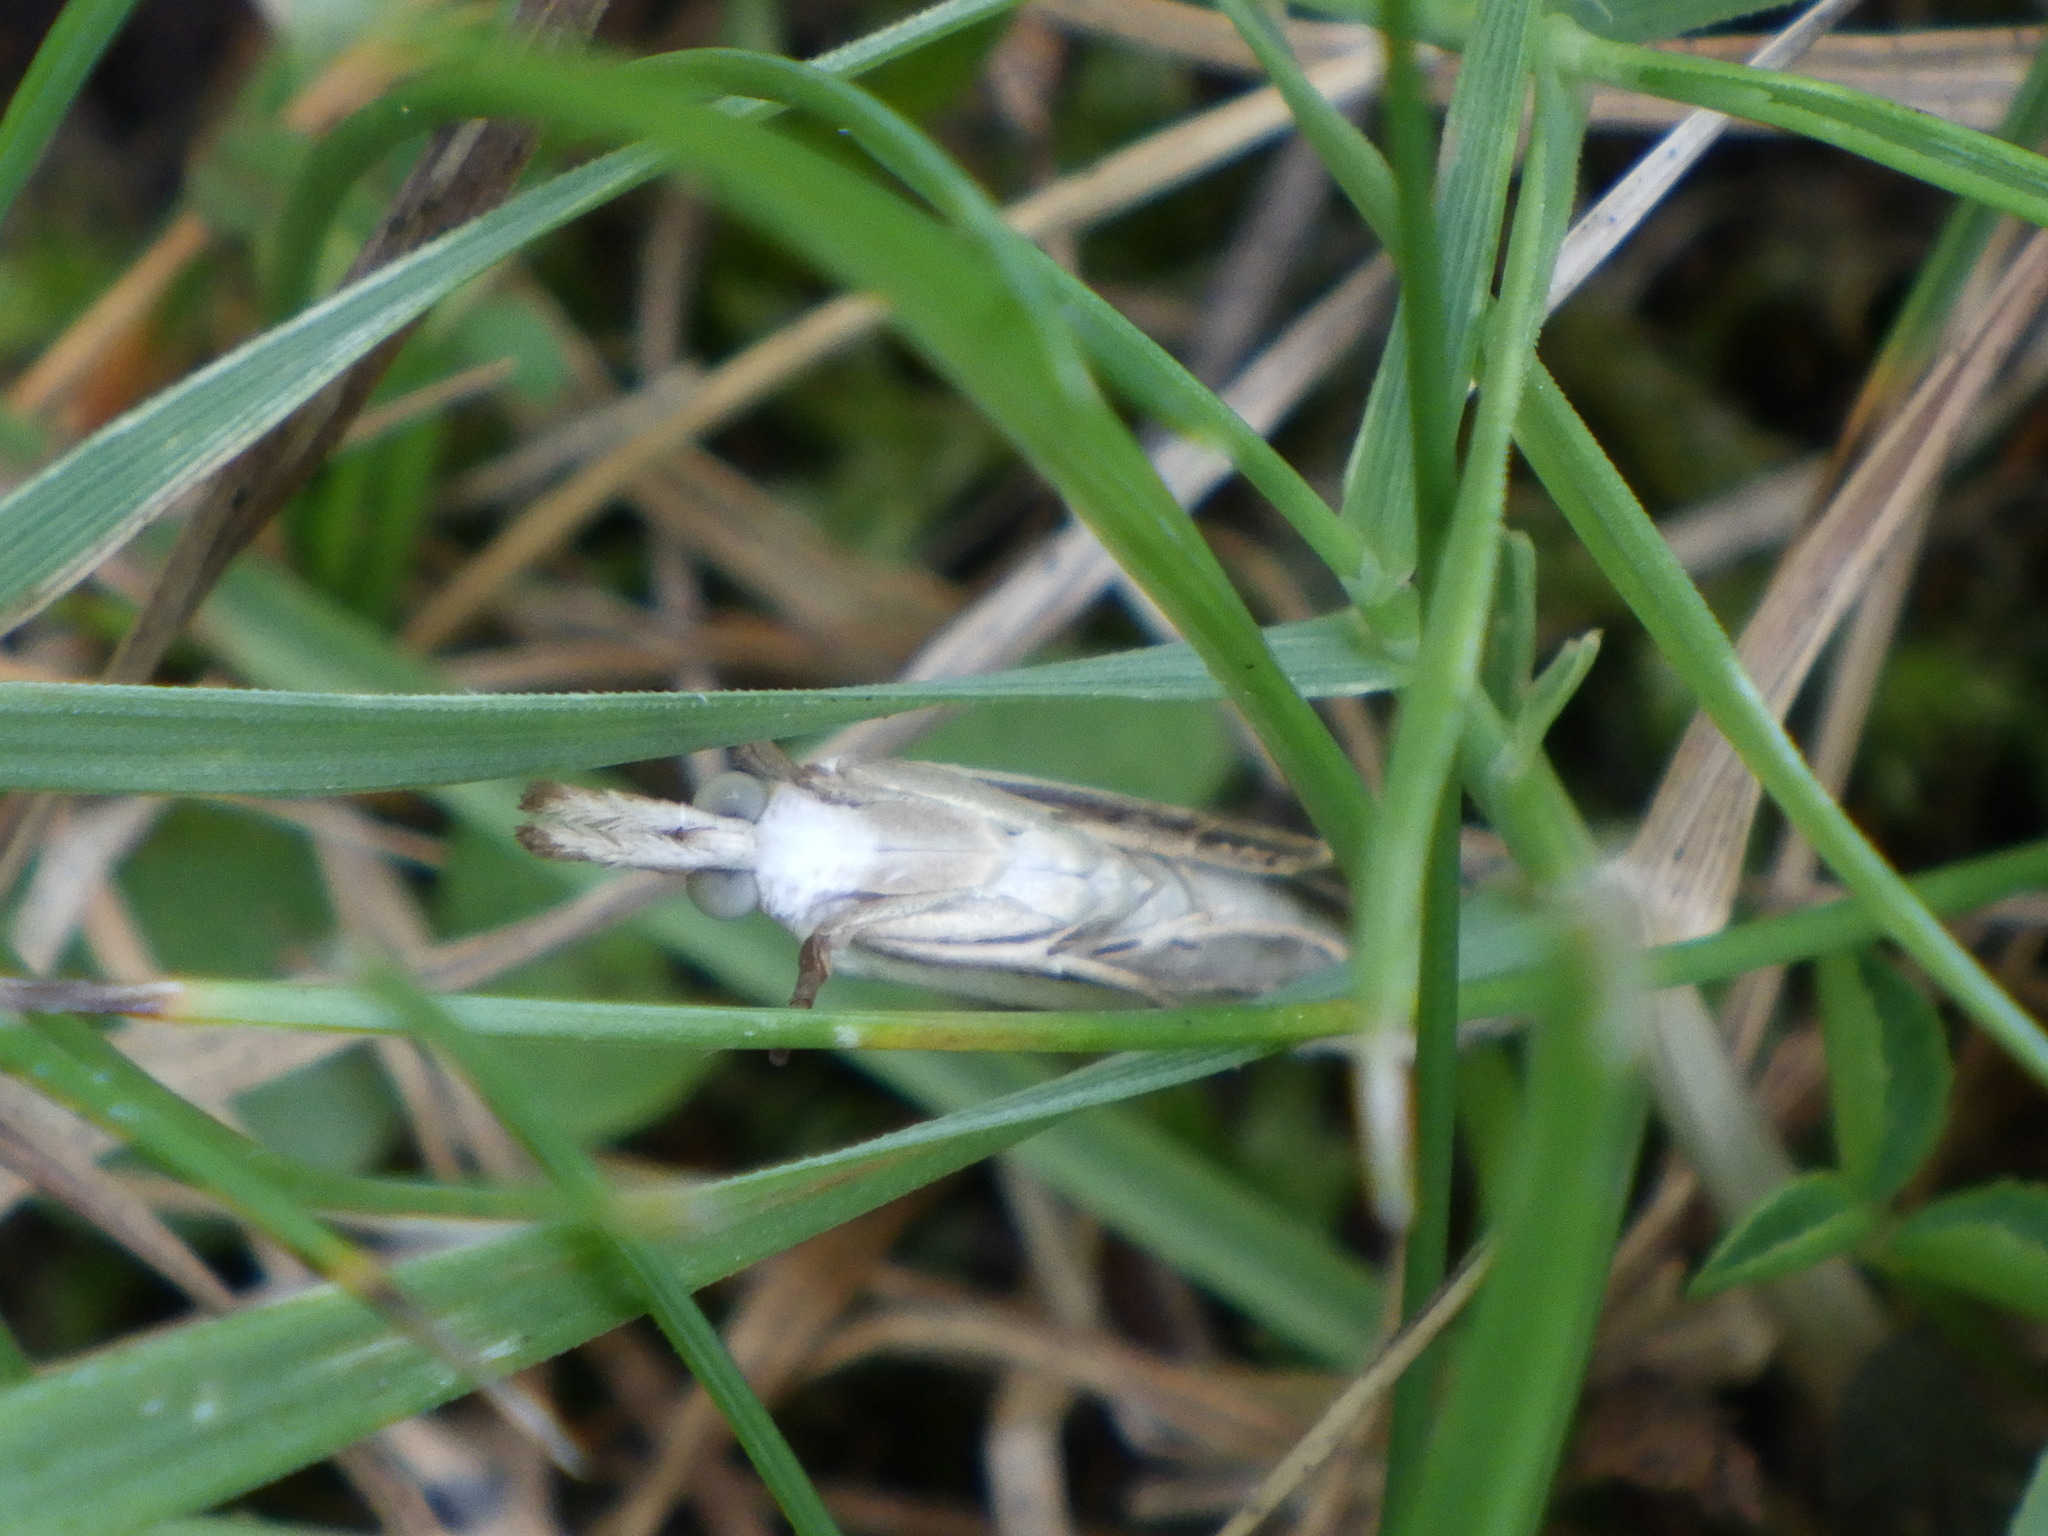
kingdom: Animalia
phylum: Arthropoda
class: Insecta
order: Lepidoptera
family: Crambidae
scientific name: Crambidae
